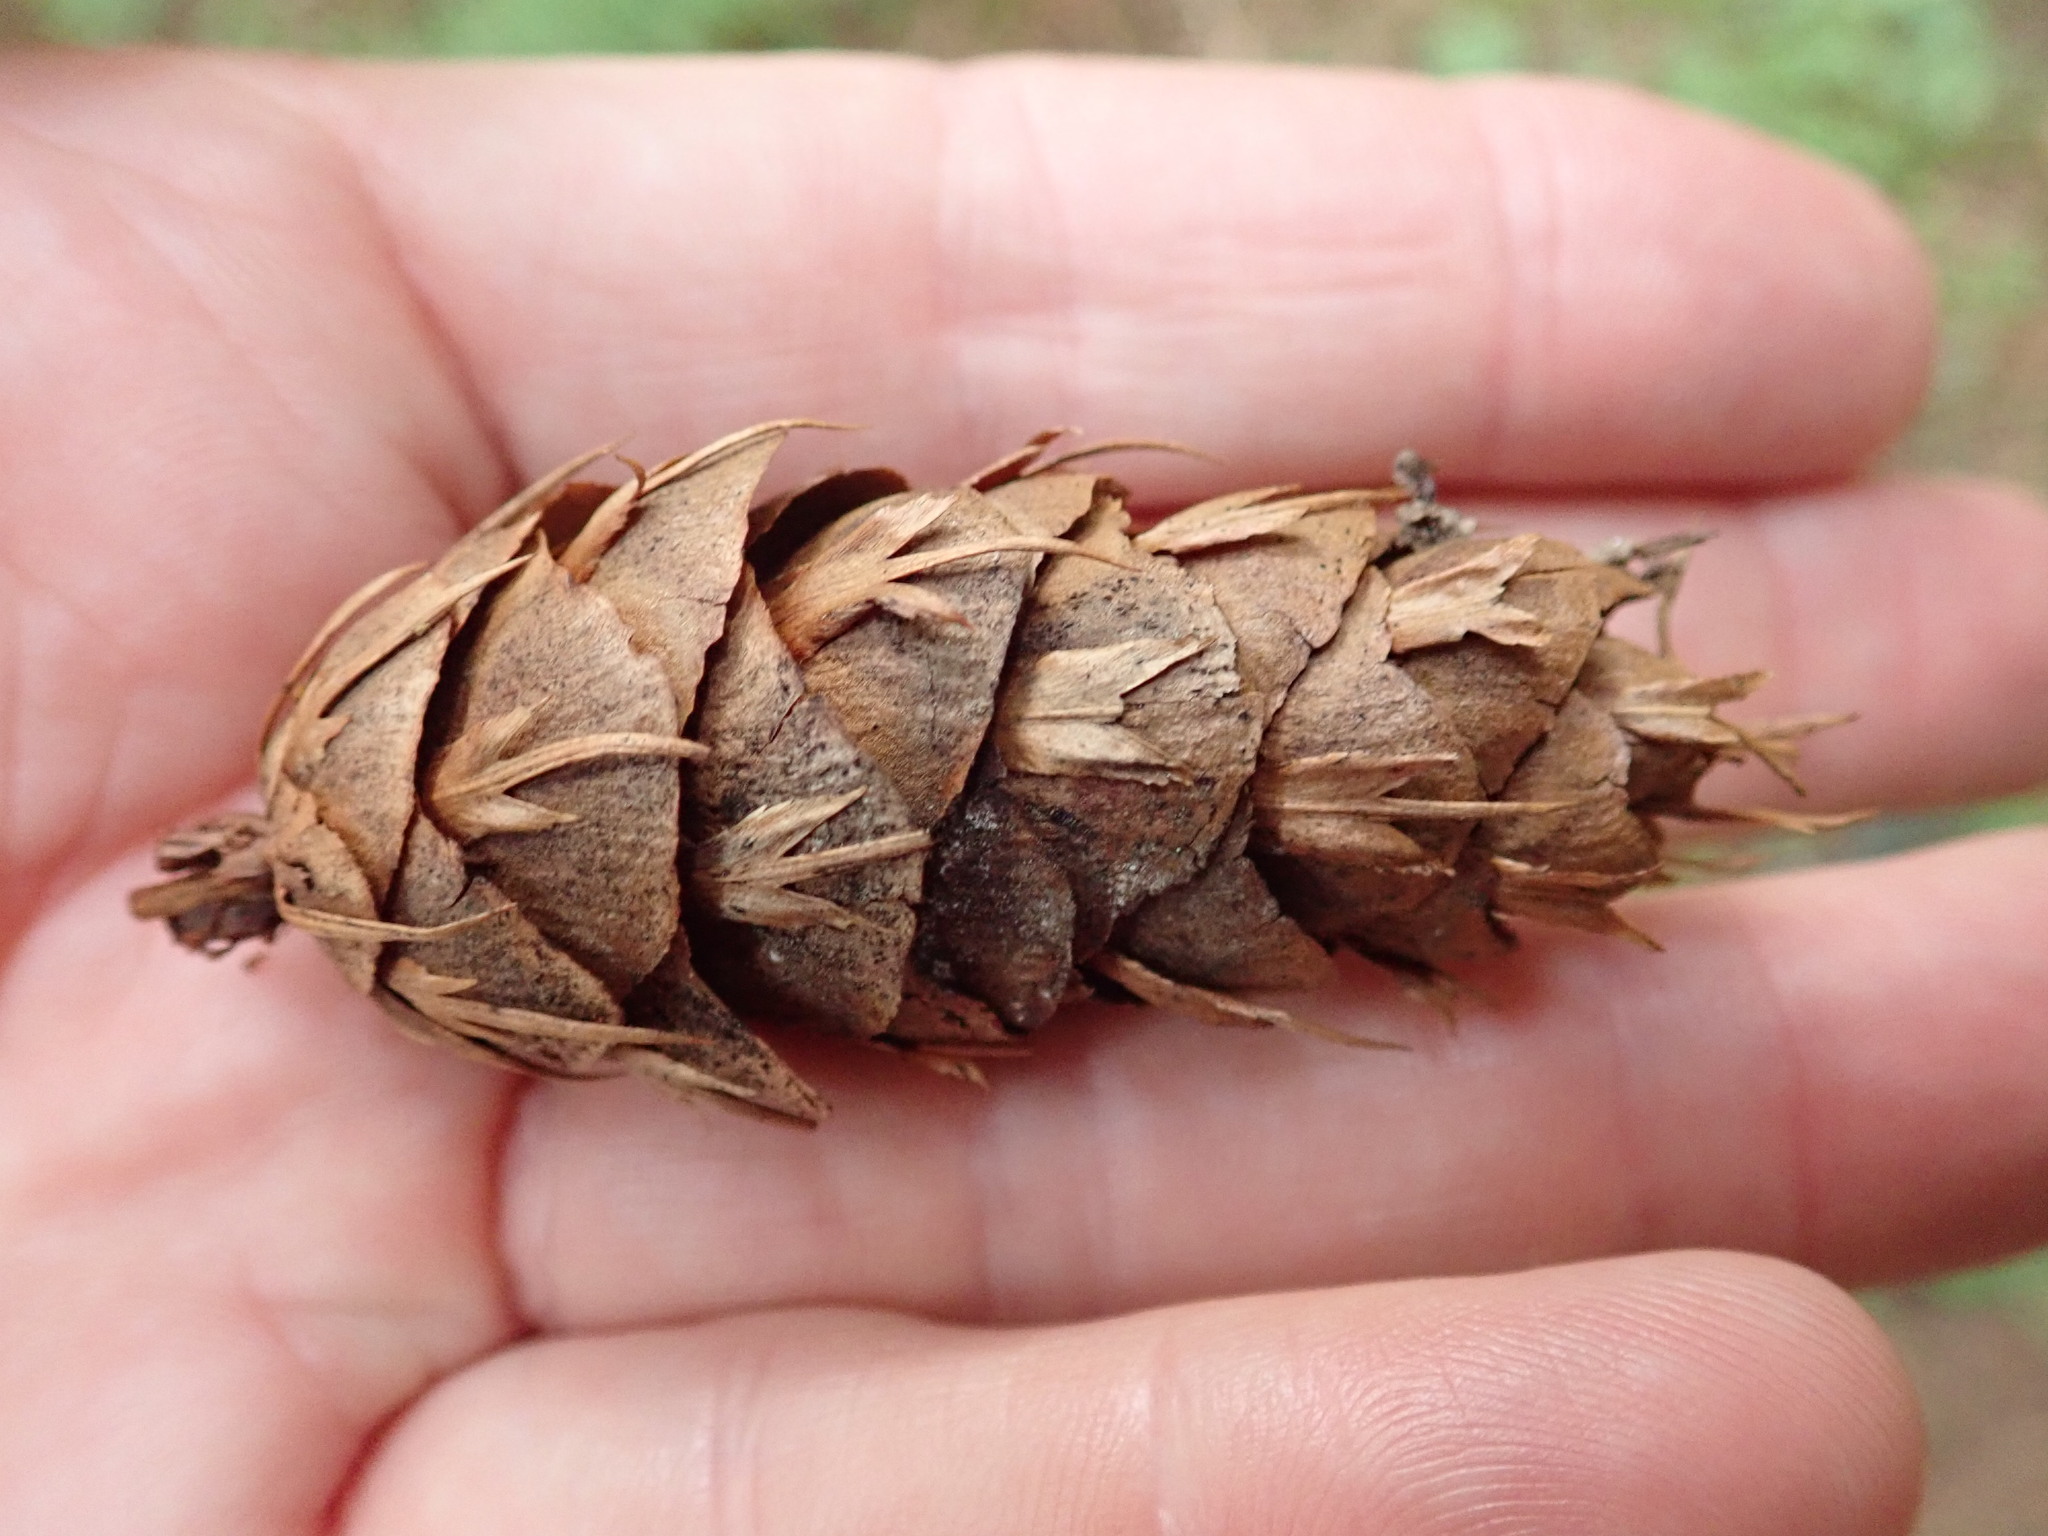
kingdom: Plantae
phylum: Tracheophyta
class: Pinopsida
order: Pinales
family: Pinaceae
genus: Pseudotsuga
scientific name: Pseudotsuga menziesii
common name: Douglas fir
